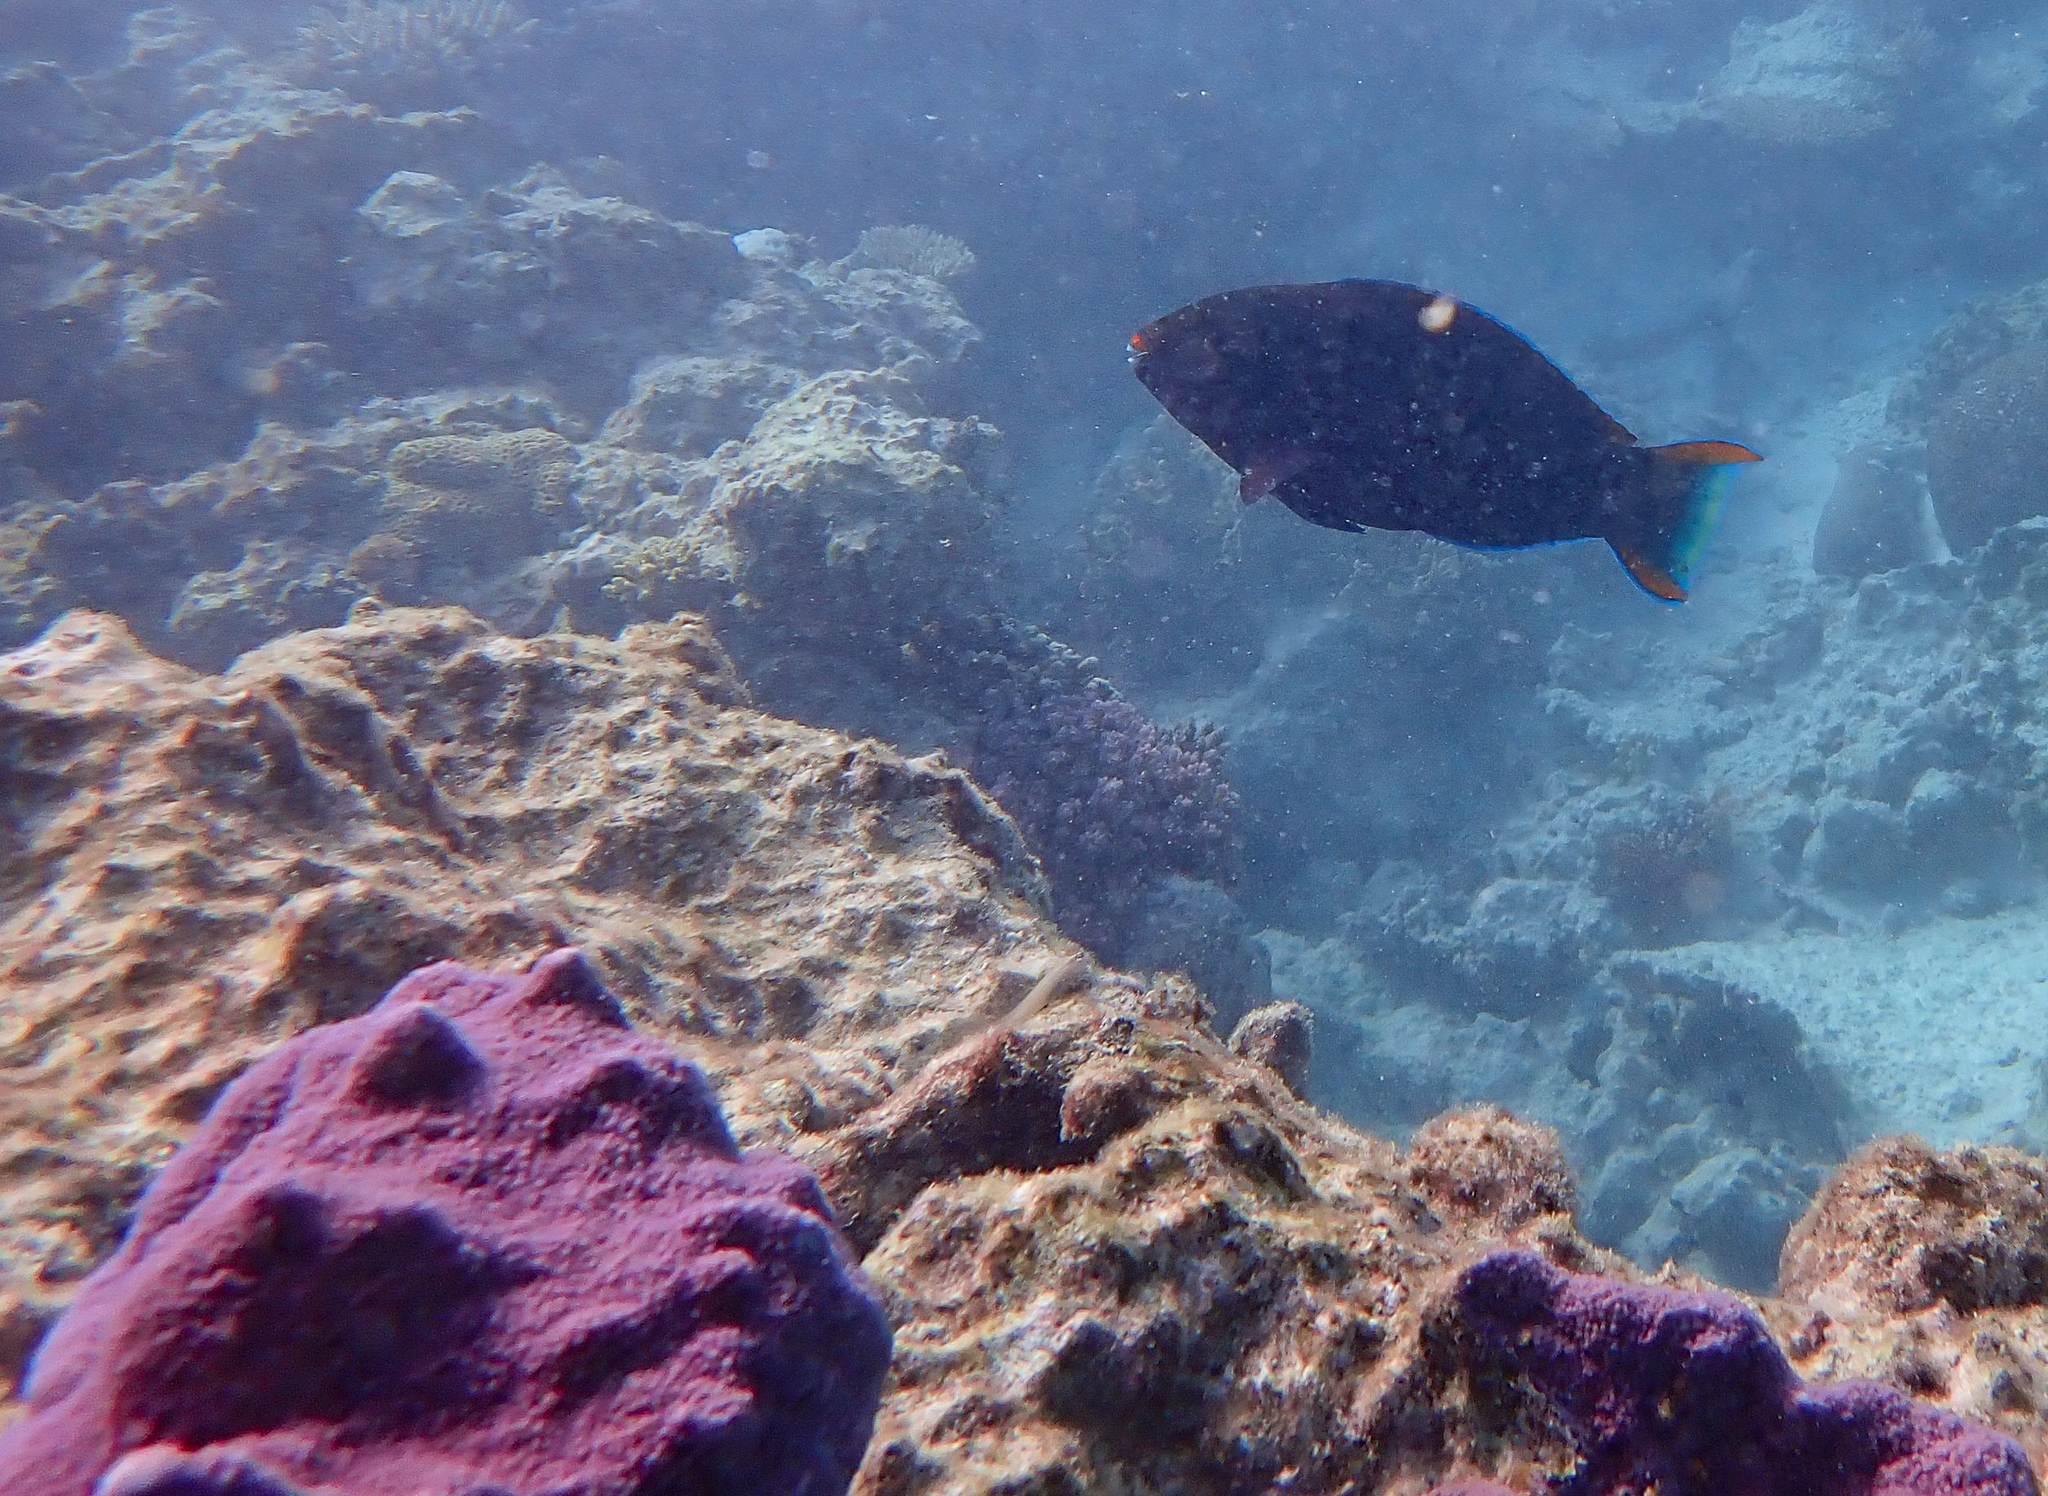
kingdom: Animalia
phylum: Chordata
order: Perciformes
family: Scaridae
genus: Scarus
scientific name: Scarus niger
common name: Dusky parrotfish
